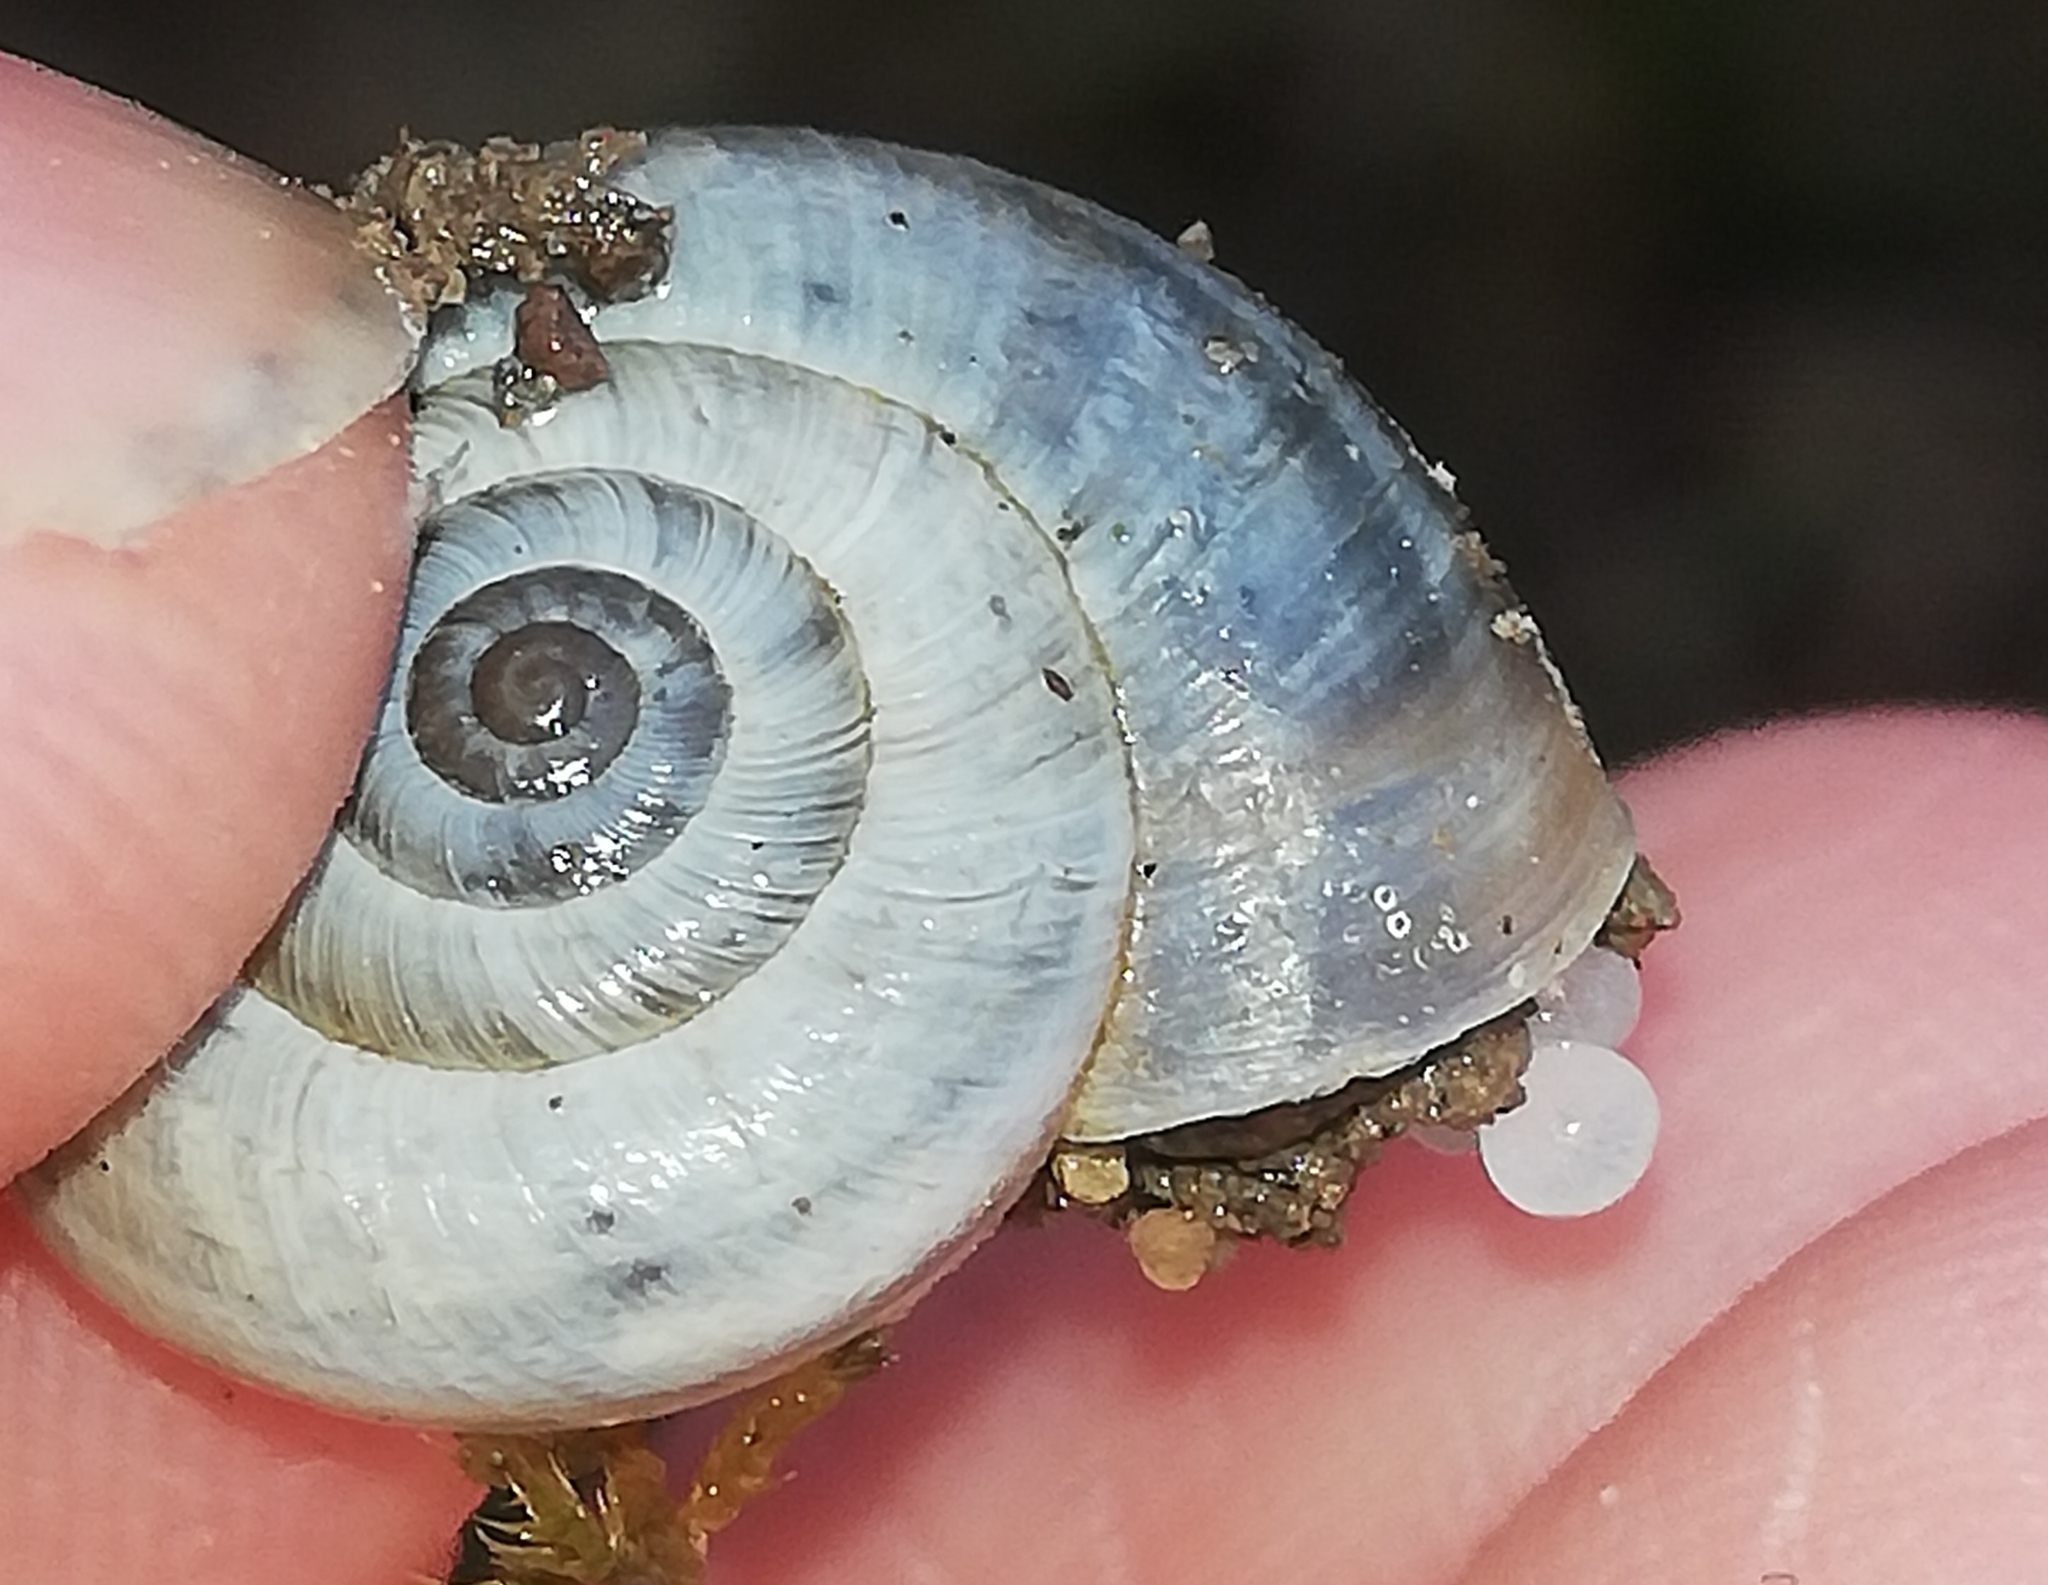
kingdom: Animalia
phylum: Mollusca
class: Gastropoda
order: Stylommatophora
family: Geomitridae
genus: Helicella
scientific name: Helicella itala
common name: Heath snail
